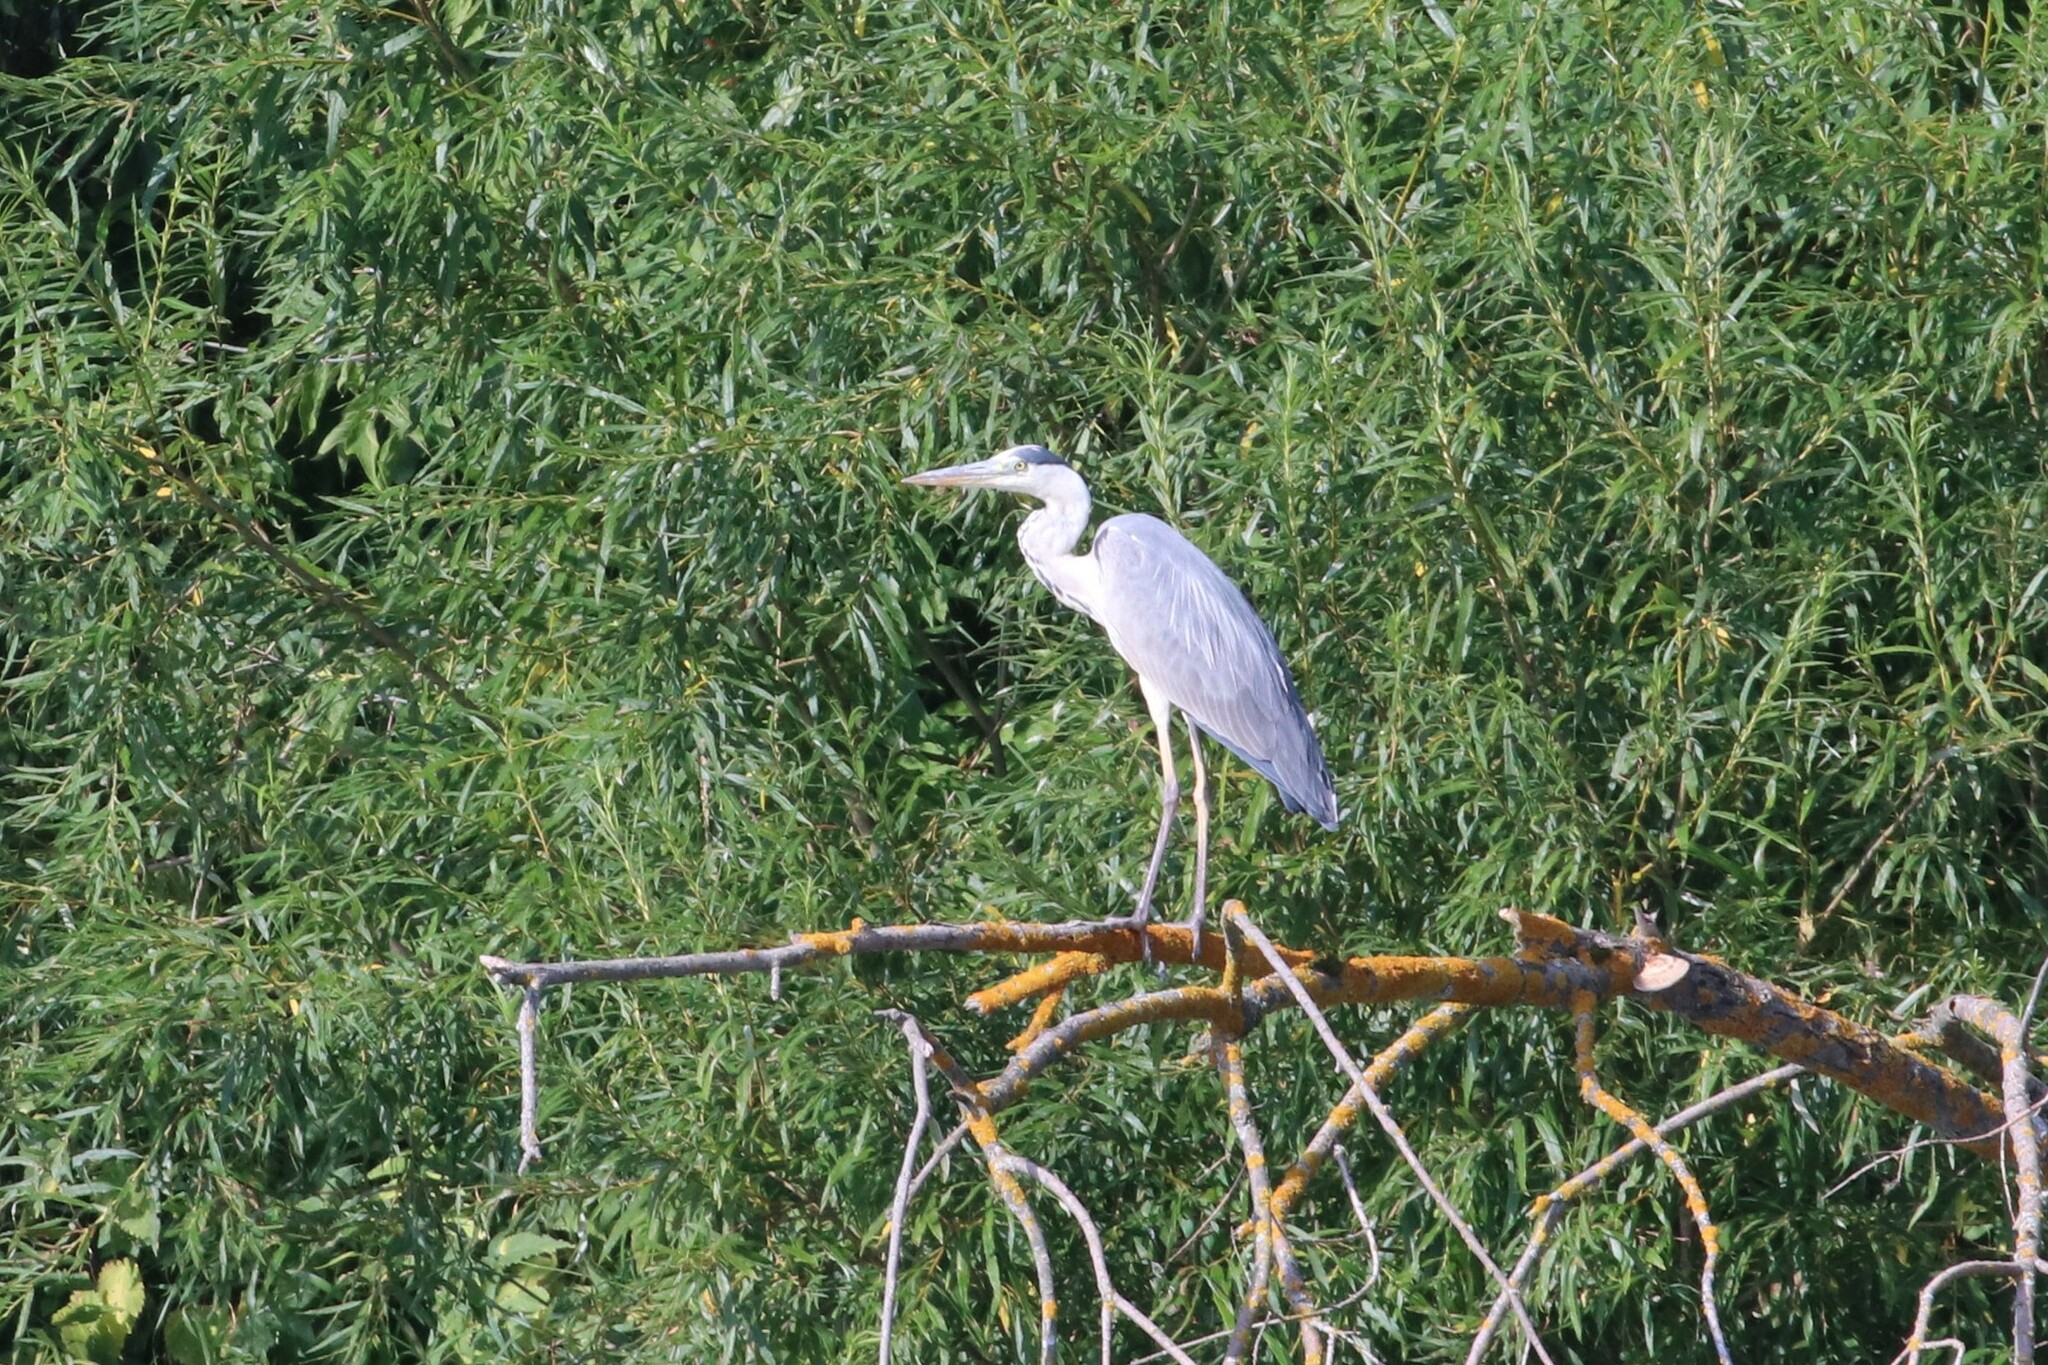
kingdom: Animalia
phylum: Chordata
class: Aves
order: Pelecaniformes
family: Ardeidae
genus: Ardea
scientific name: Ardea cinerea
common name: Grey heron
